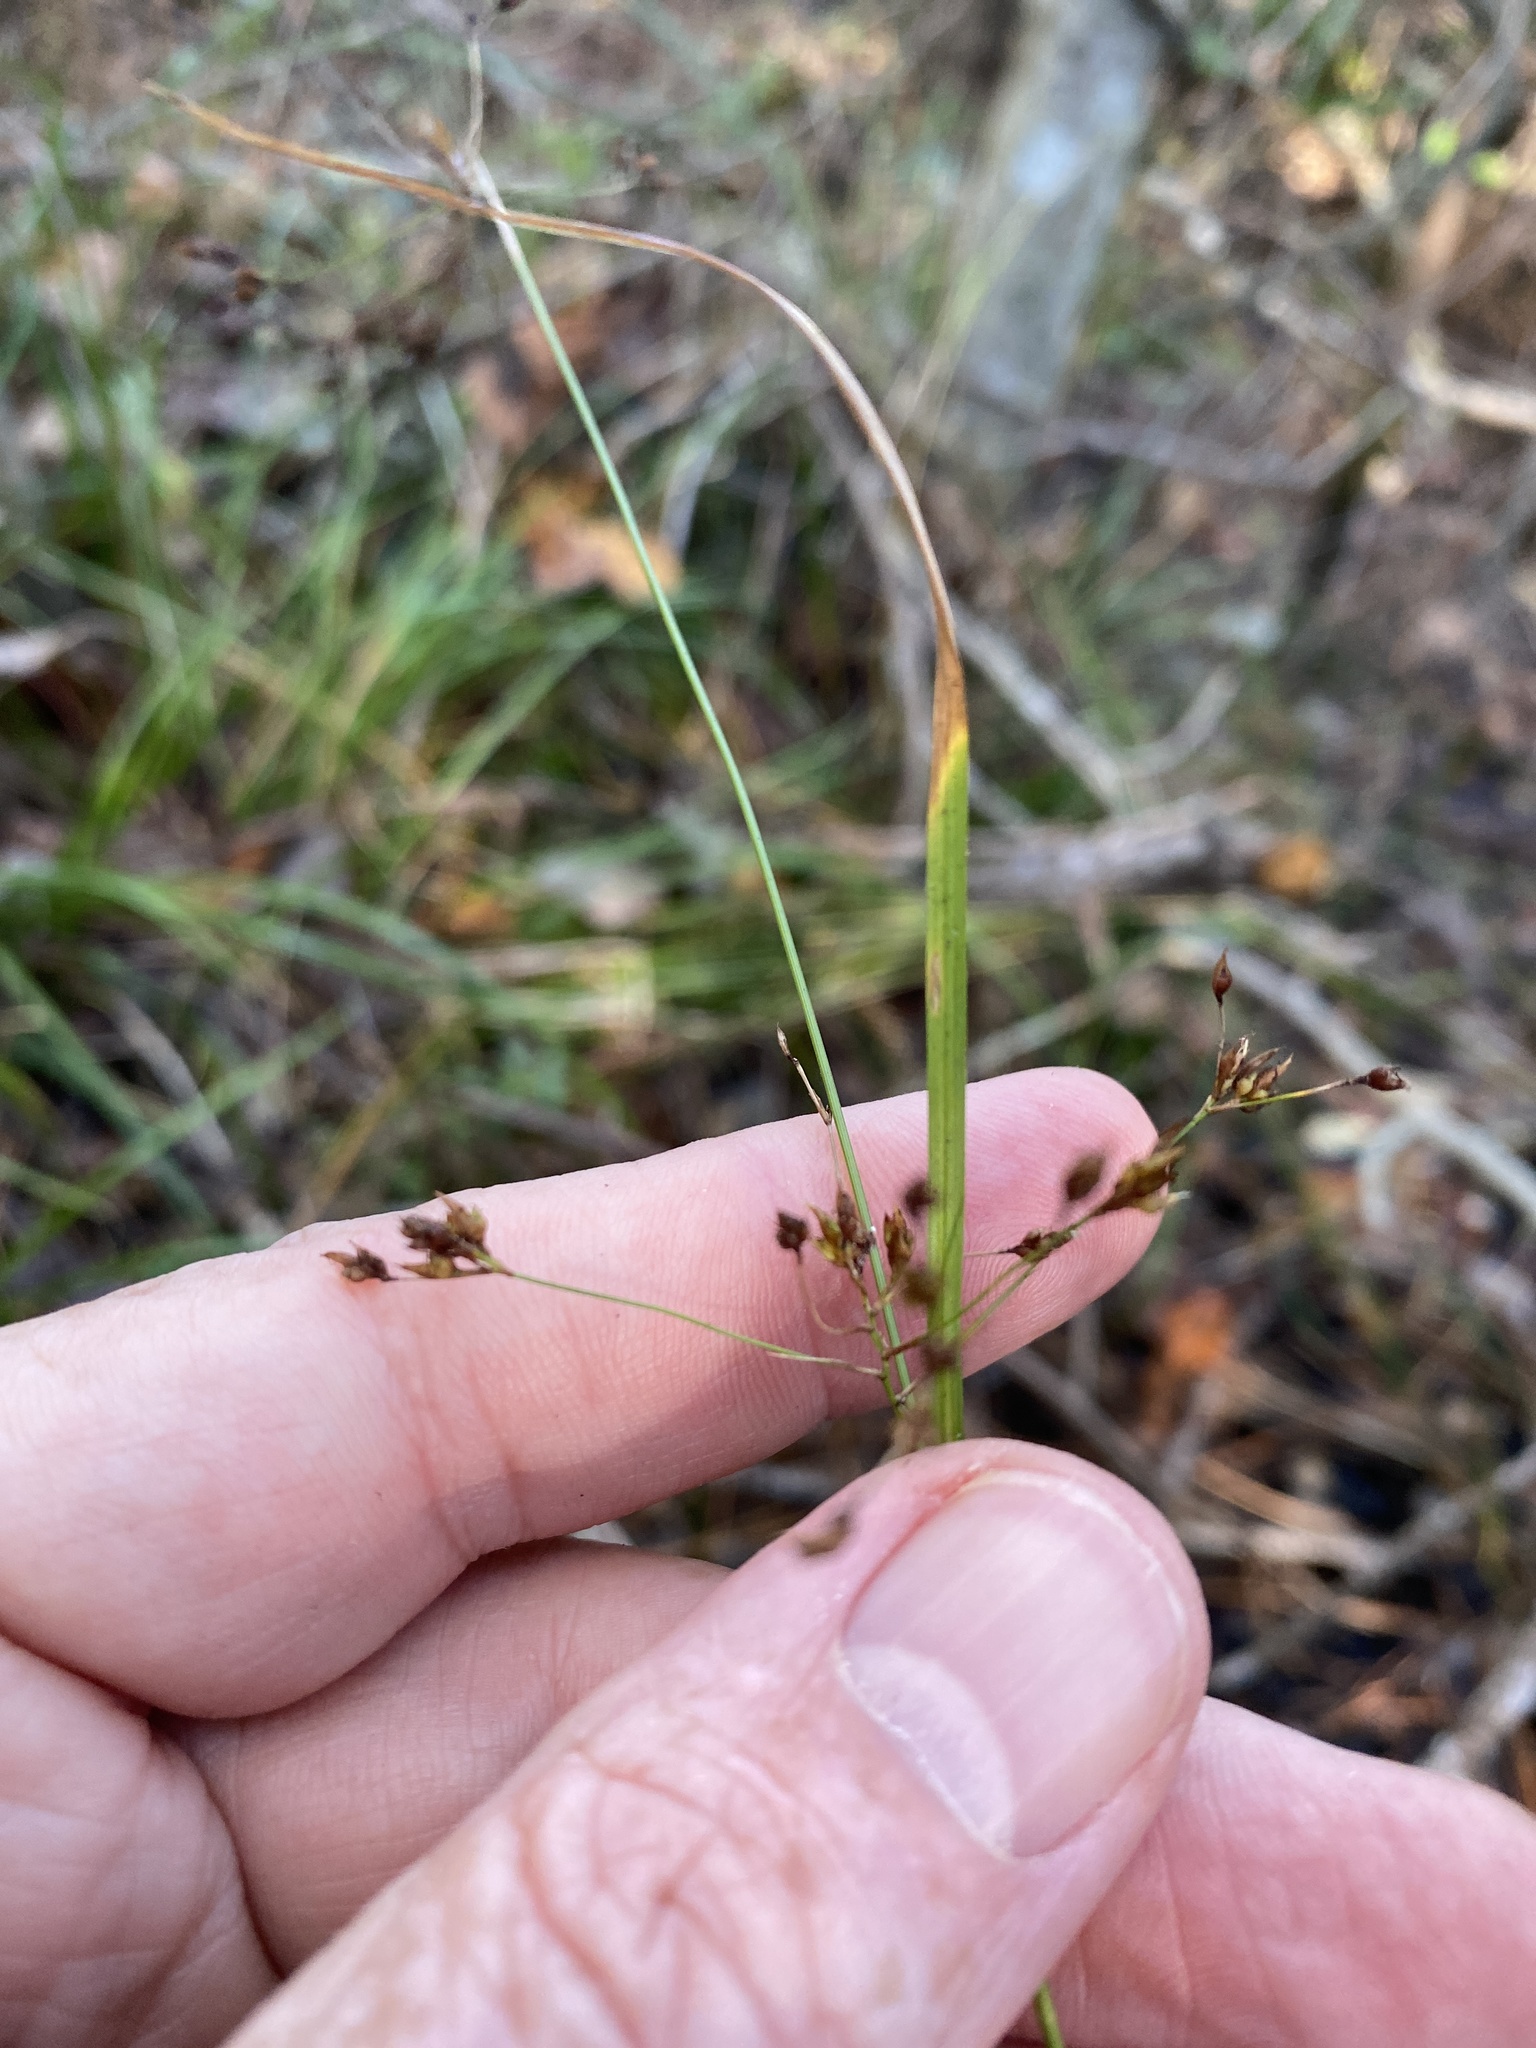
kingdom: Plantae
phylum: Tracheophyta
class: Liliopsida
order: Poales
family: Cyperaceae
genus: Rhynchospora
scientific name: Rhynchospora miliacea
